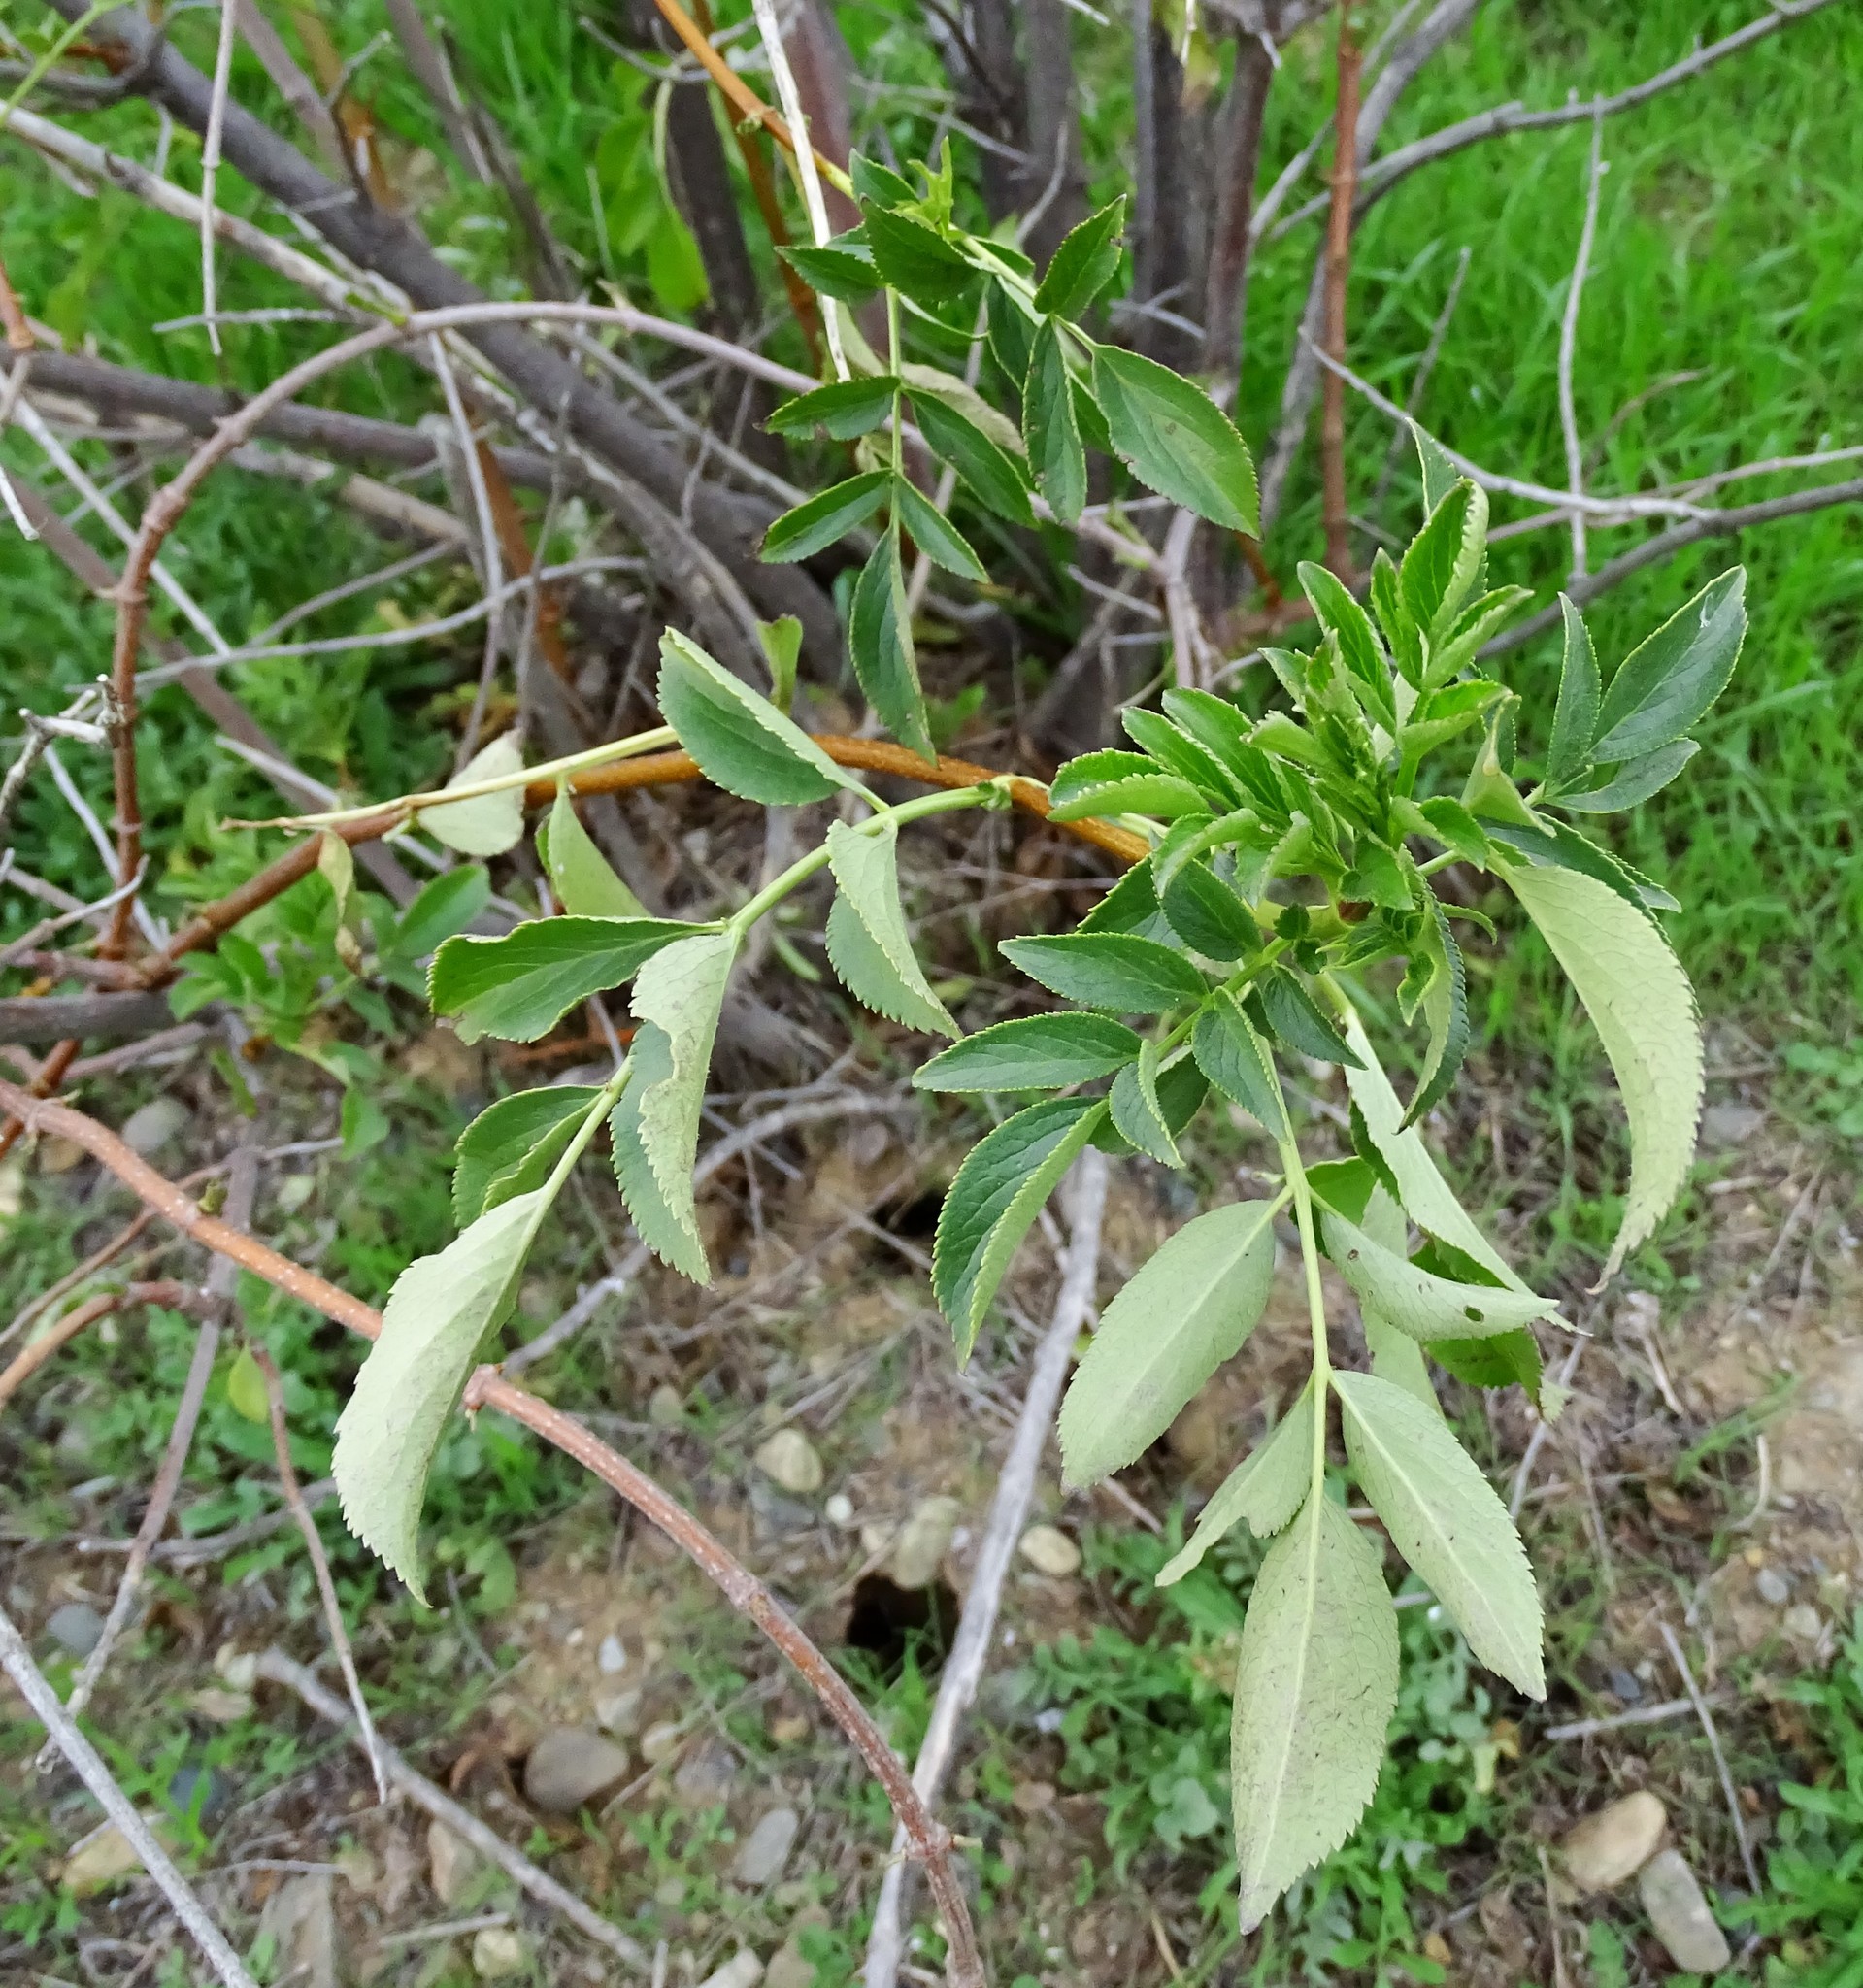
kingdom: Plantae
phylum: Tracheophyta
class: Magnoliopsida
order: Dipsacales
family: Viburnaceae
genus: Sambucus
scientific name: Sambucus cerulea
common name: Blue elder
